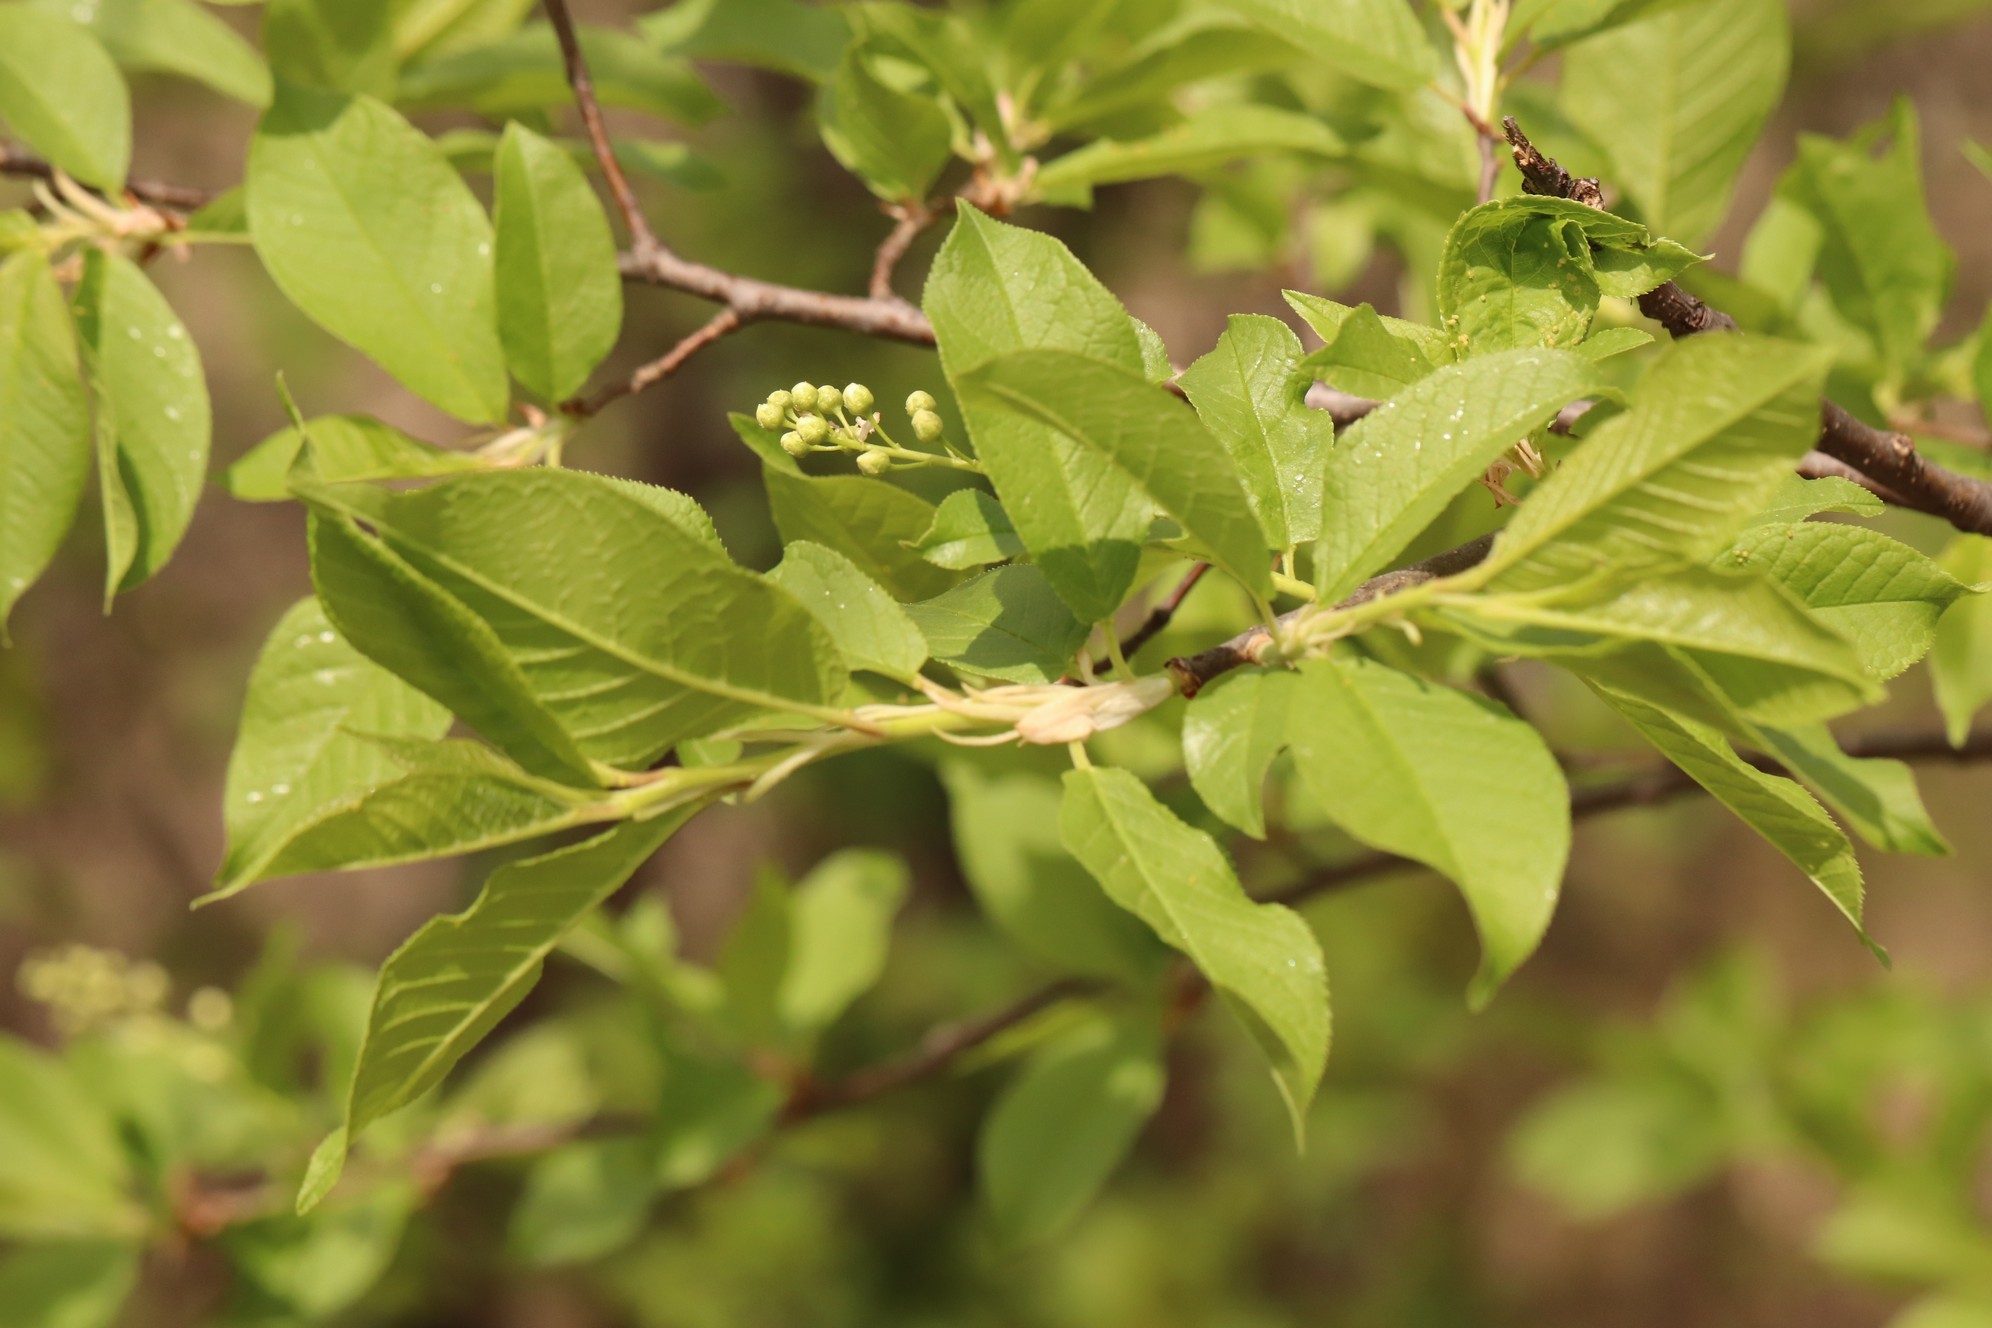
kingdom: Plantae
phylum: Tracheophyta
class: Magnoliopsida
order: Rosales
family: Rosaceae
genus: Prunus
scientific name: Prunus padus
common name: Bird cherry
